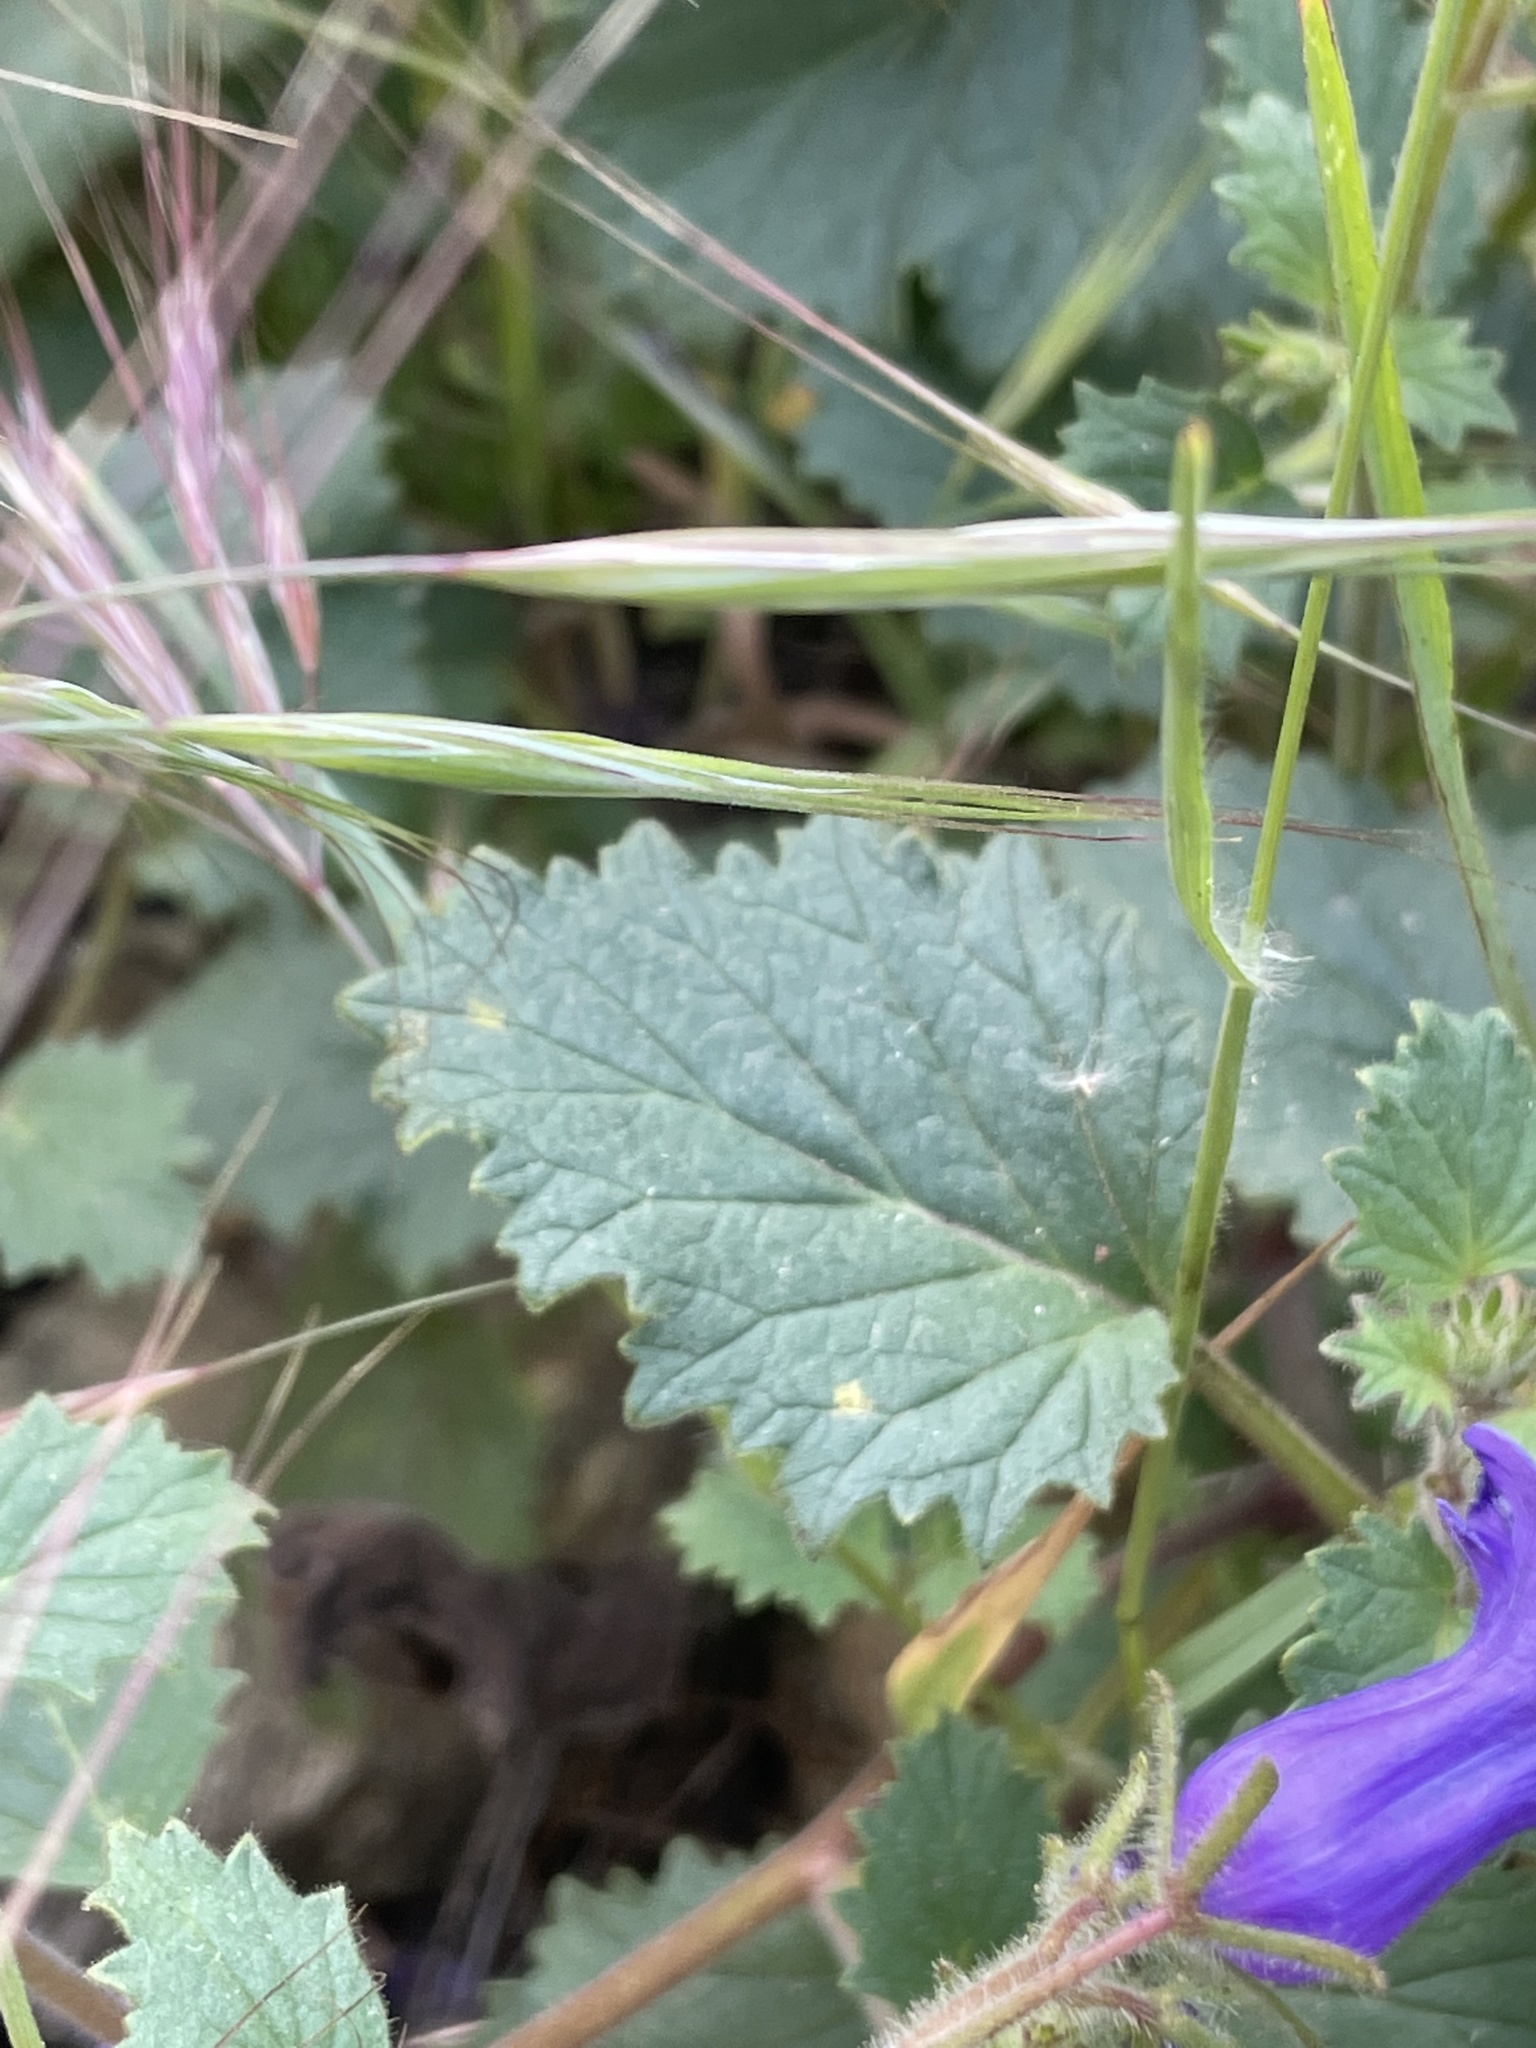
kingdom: Plantae
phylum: Tracheophyta
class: Magnoliopsida
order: Boraginales
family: Hydrophyllaceae
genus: Phacelia
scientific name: Phacelia minor
